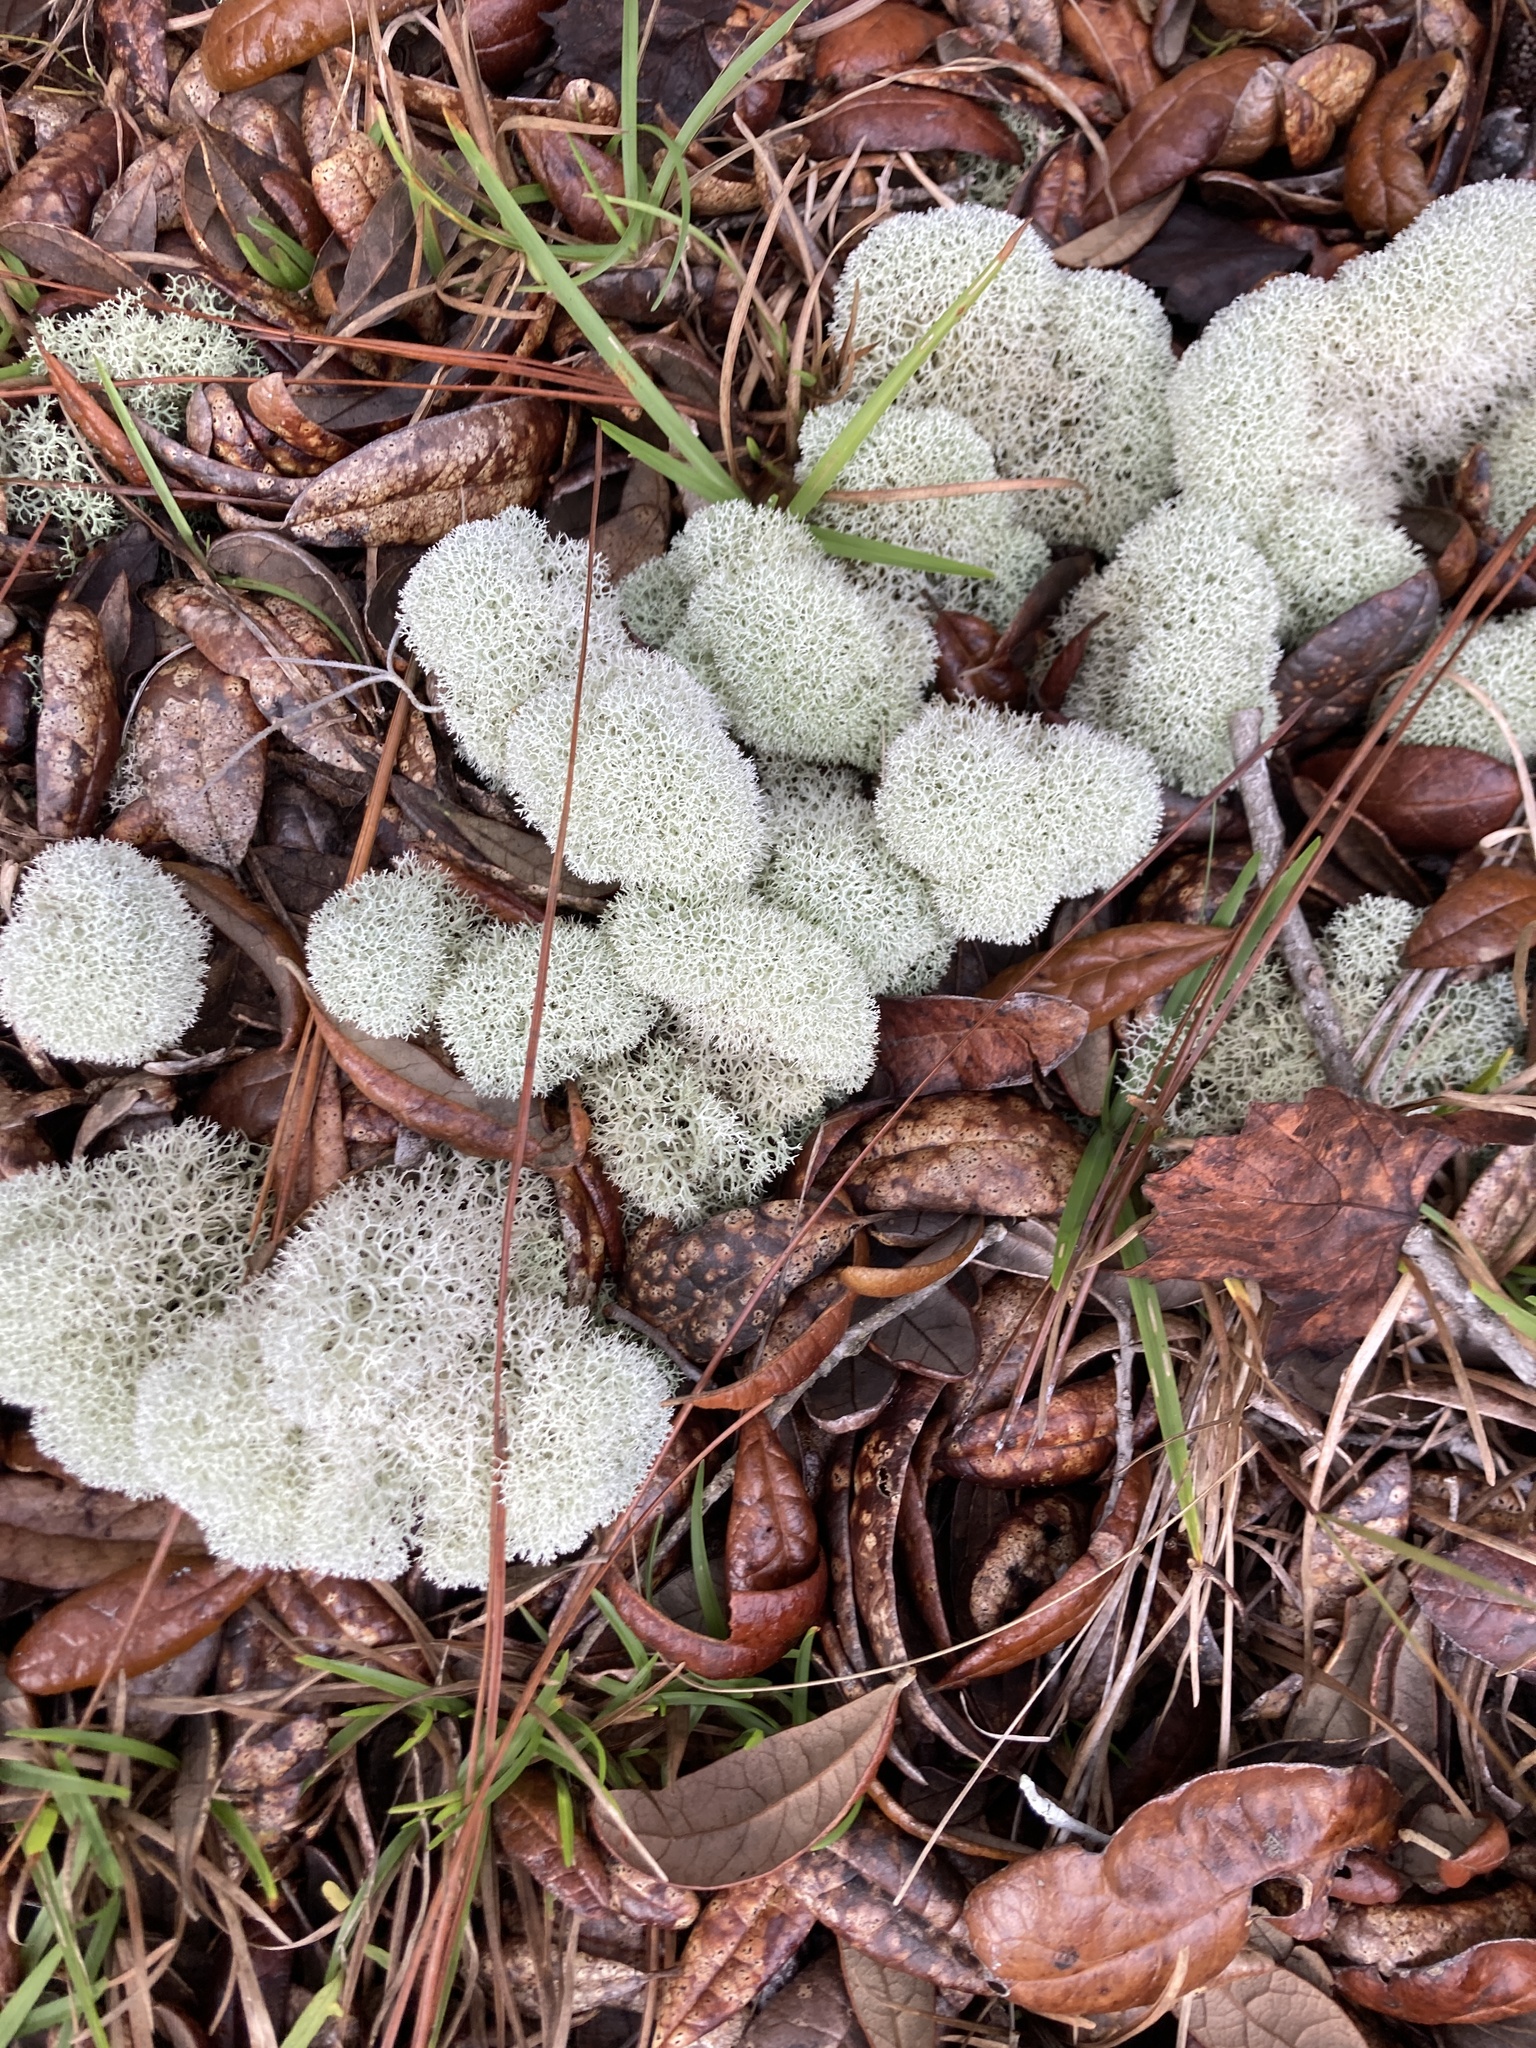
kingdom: Fungi
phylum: Ascomycota
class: Lecanoromycetes
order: Lecanorales
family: Cladoniaceae
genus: Cladonia
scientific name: Cladonia evansii
